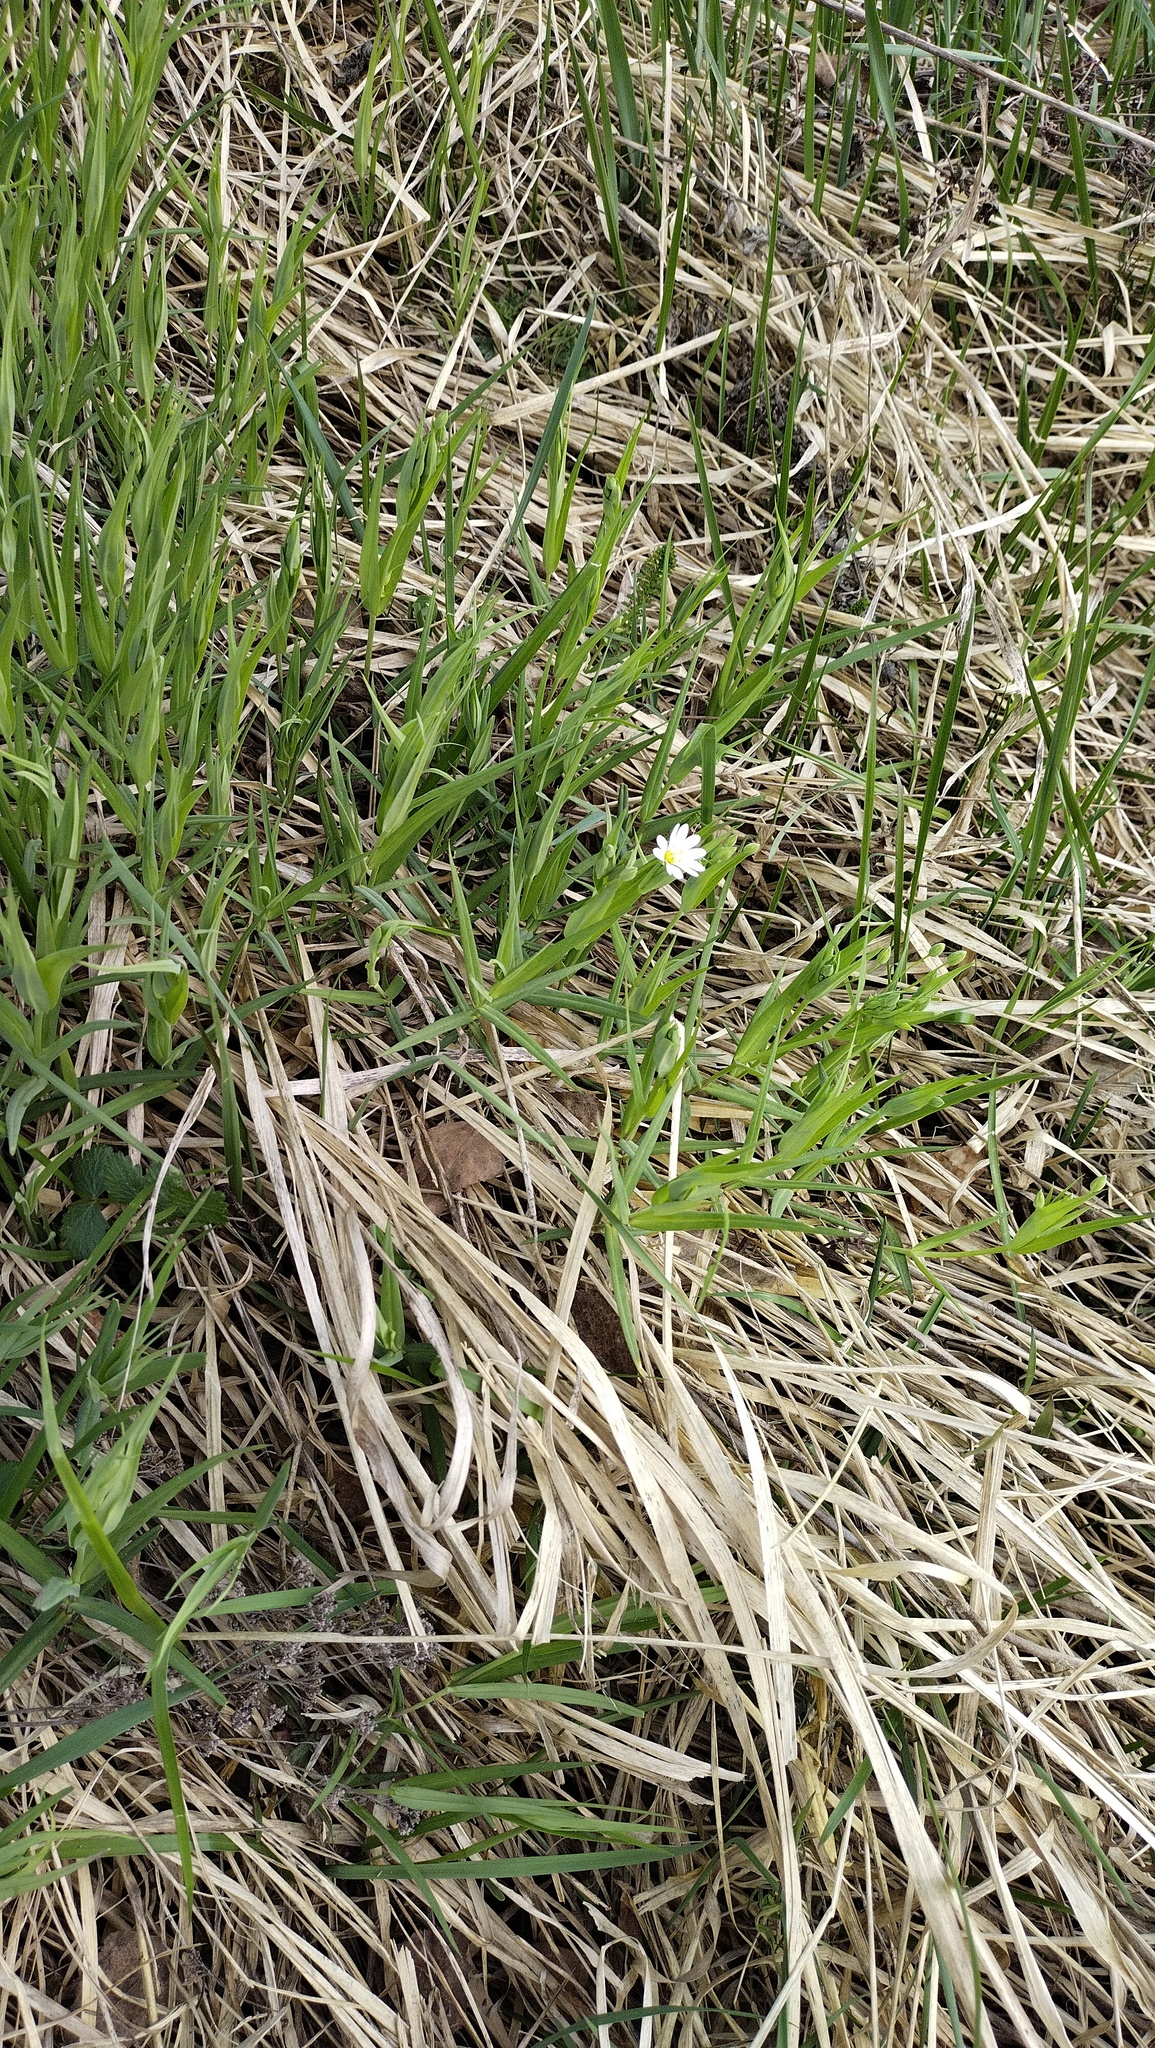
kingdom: Plantae
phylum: Tracheophyta
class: Magnoliopsida
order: Caryophyllales
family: Caryophyllaceae
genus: Rabelera
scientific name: Rabelera holostea
